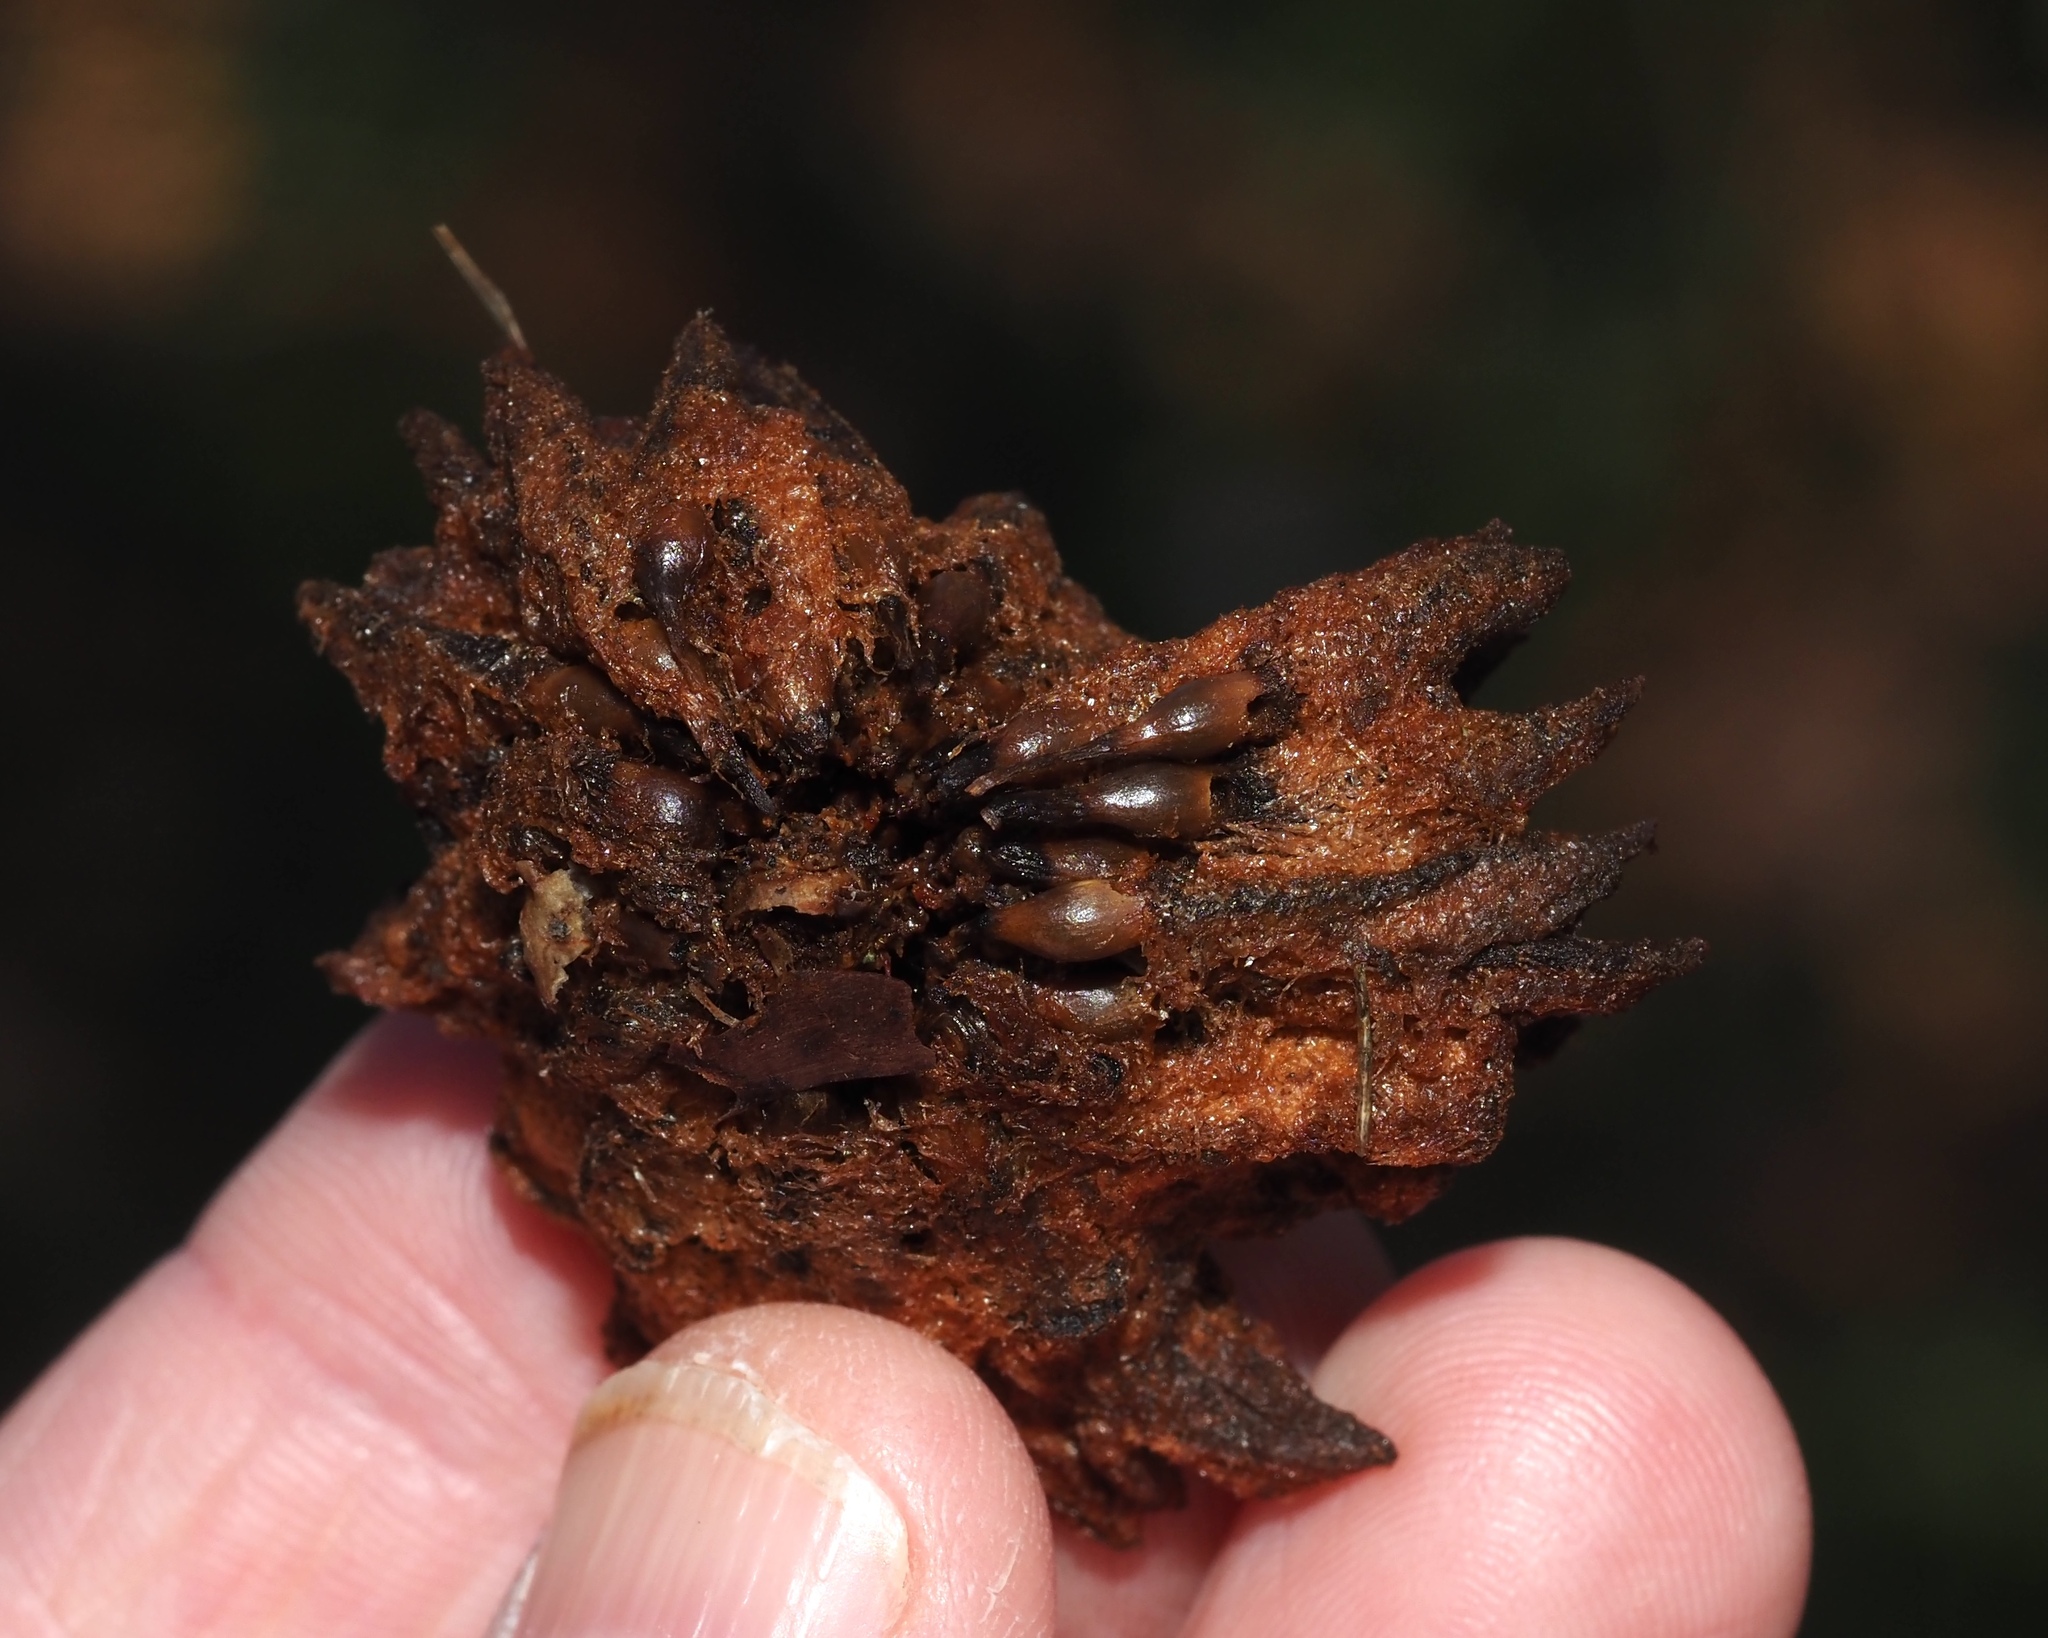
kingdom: Animalia
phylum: Arthropoda
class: Insecta
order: Hymenoptera
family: Cynipidae
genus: Callirhytis
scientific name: Callirhytis
